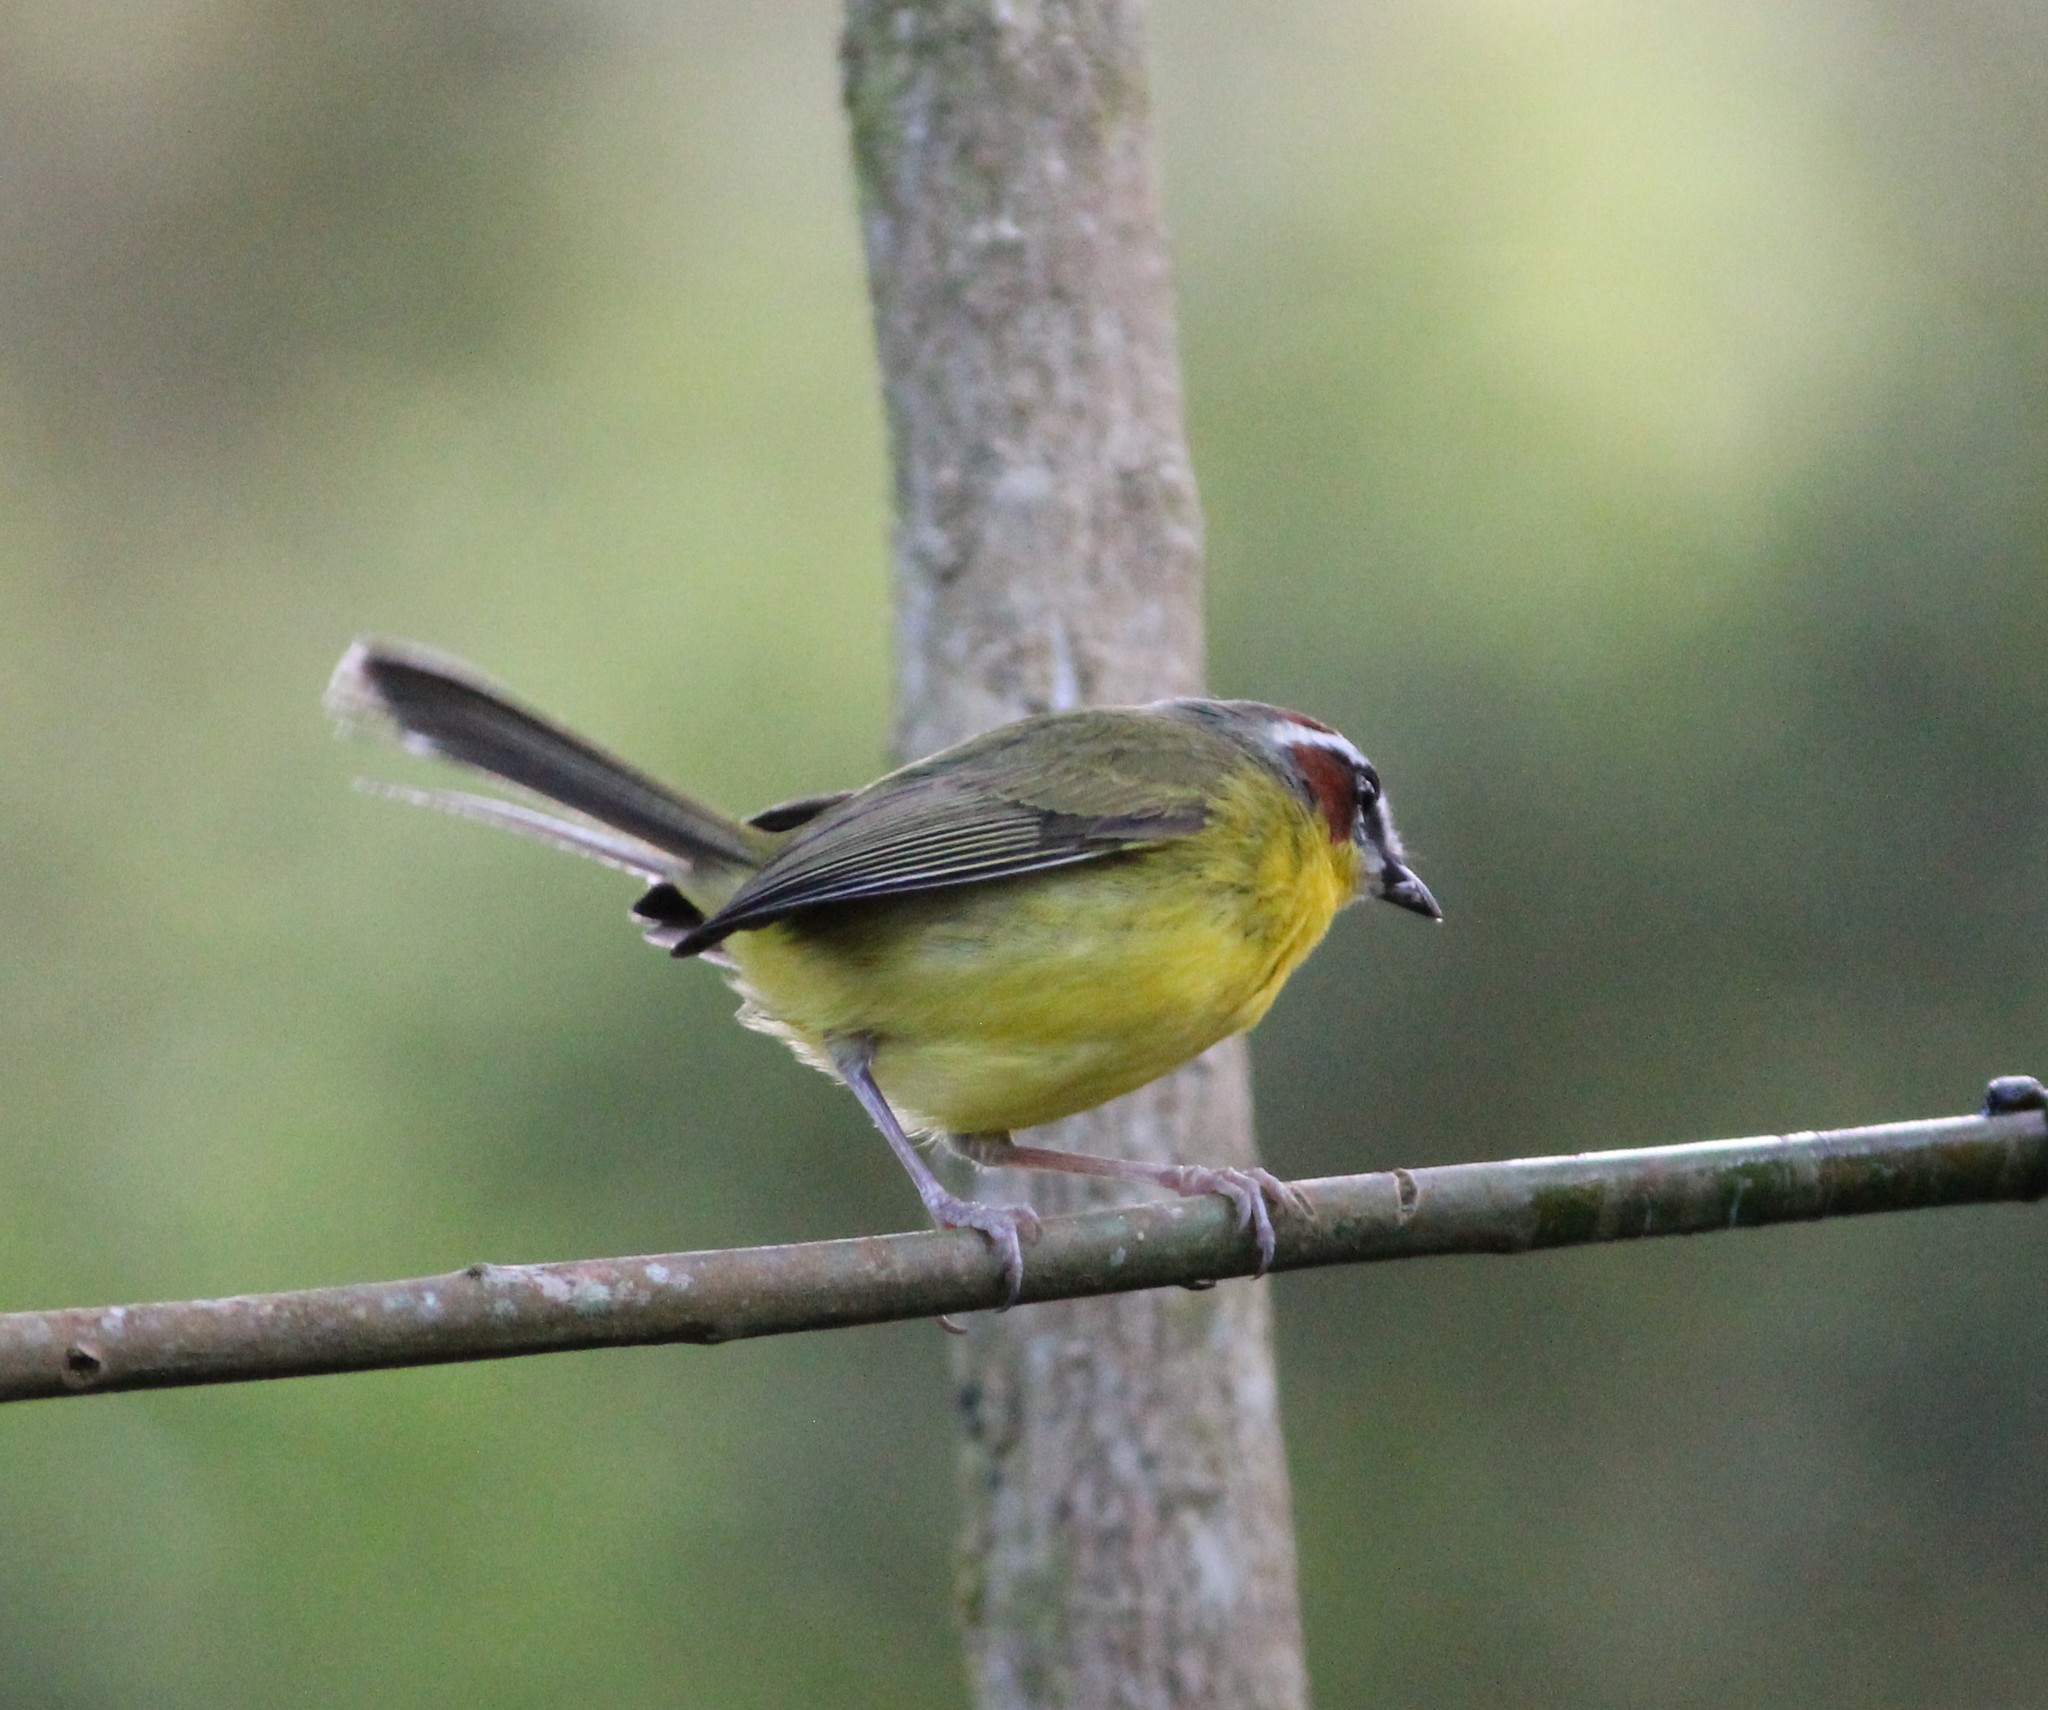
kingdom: Animalia
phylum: Chordata
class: Aves
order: Passeriformes
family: Parulidae
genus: Basileuterus
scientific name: Basileuterus rufifrons
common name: Rufous-capped warbler
